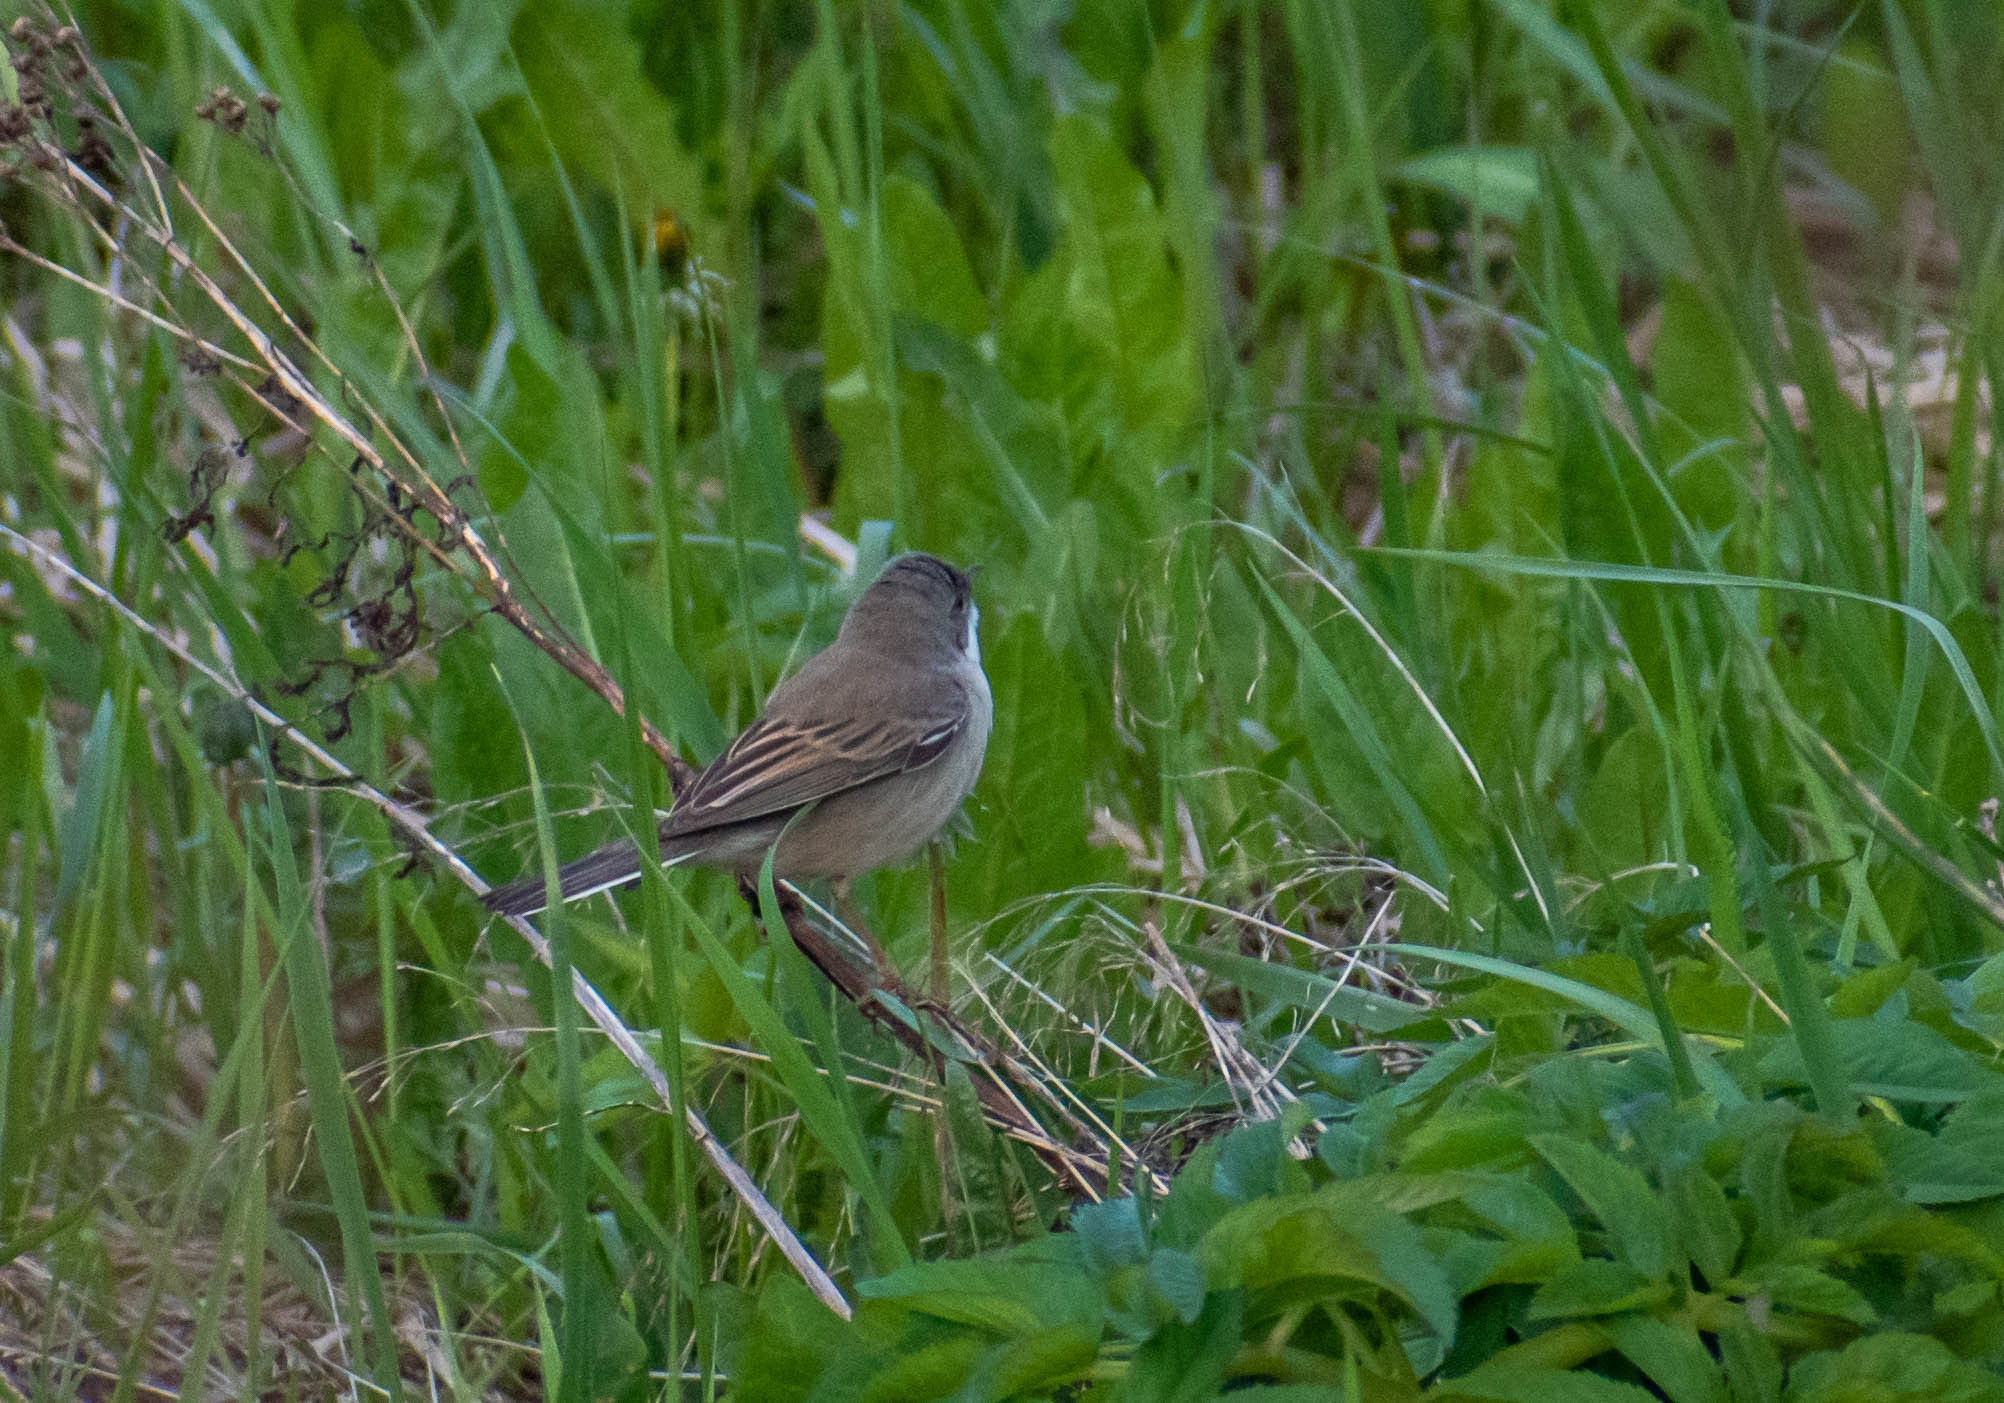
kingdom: Animalia
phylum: Chordata
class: Aves
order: Passeriformes
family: Sylviidae
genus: Sylvia
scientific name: Sylvia communis
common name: Common whitethroat
